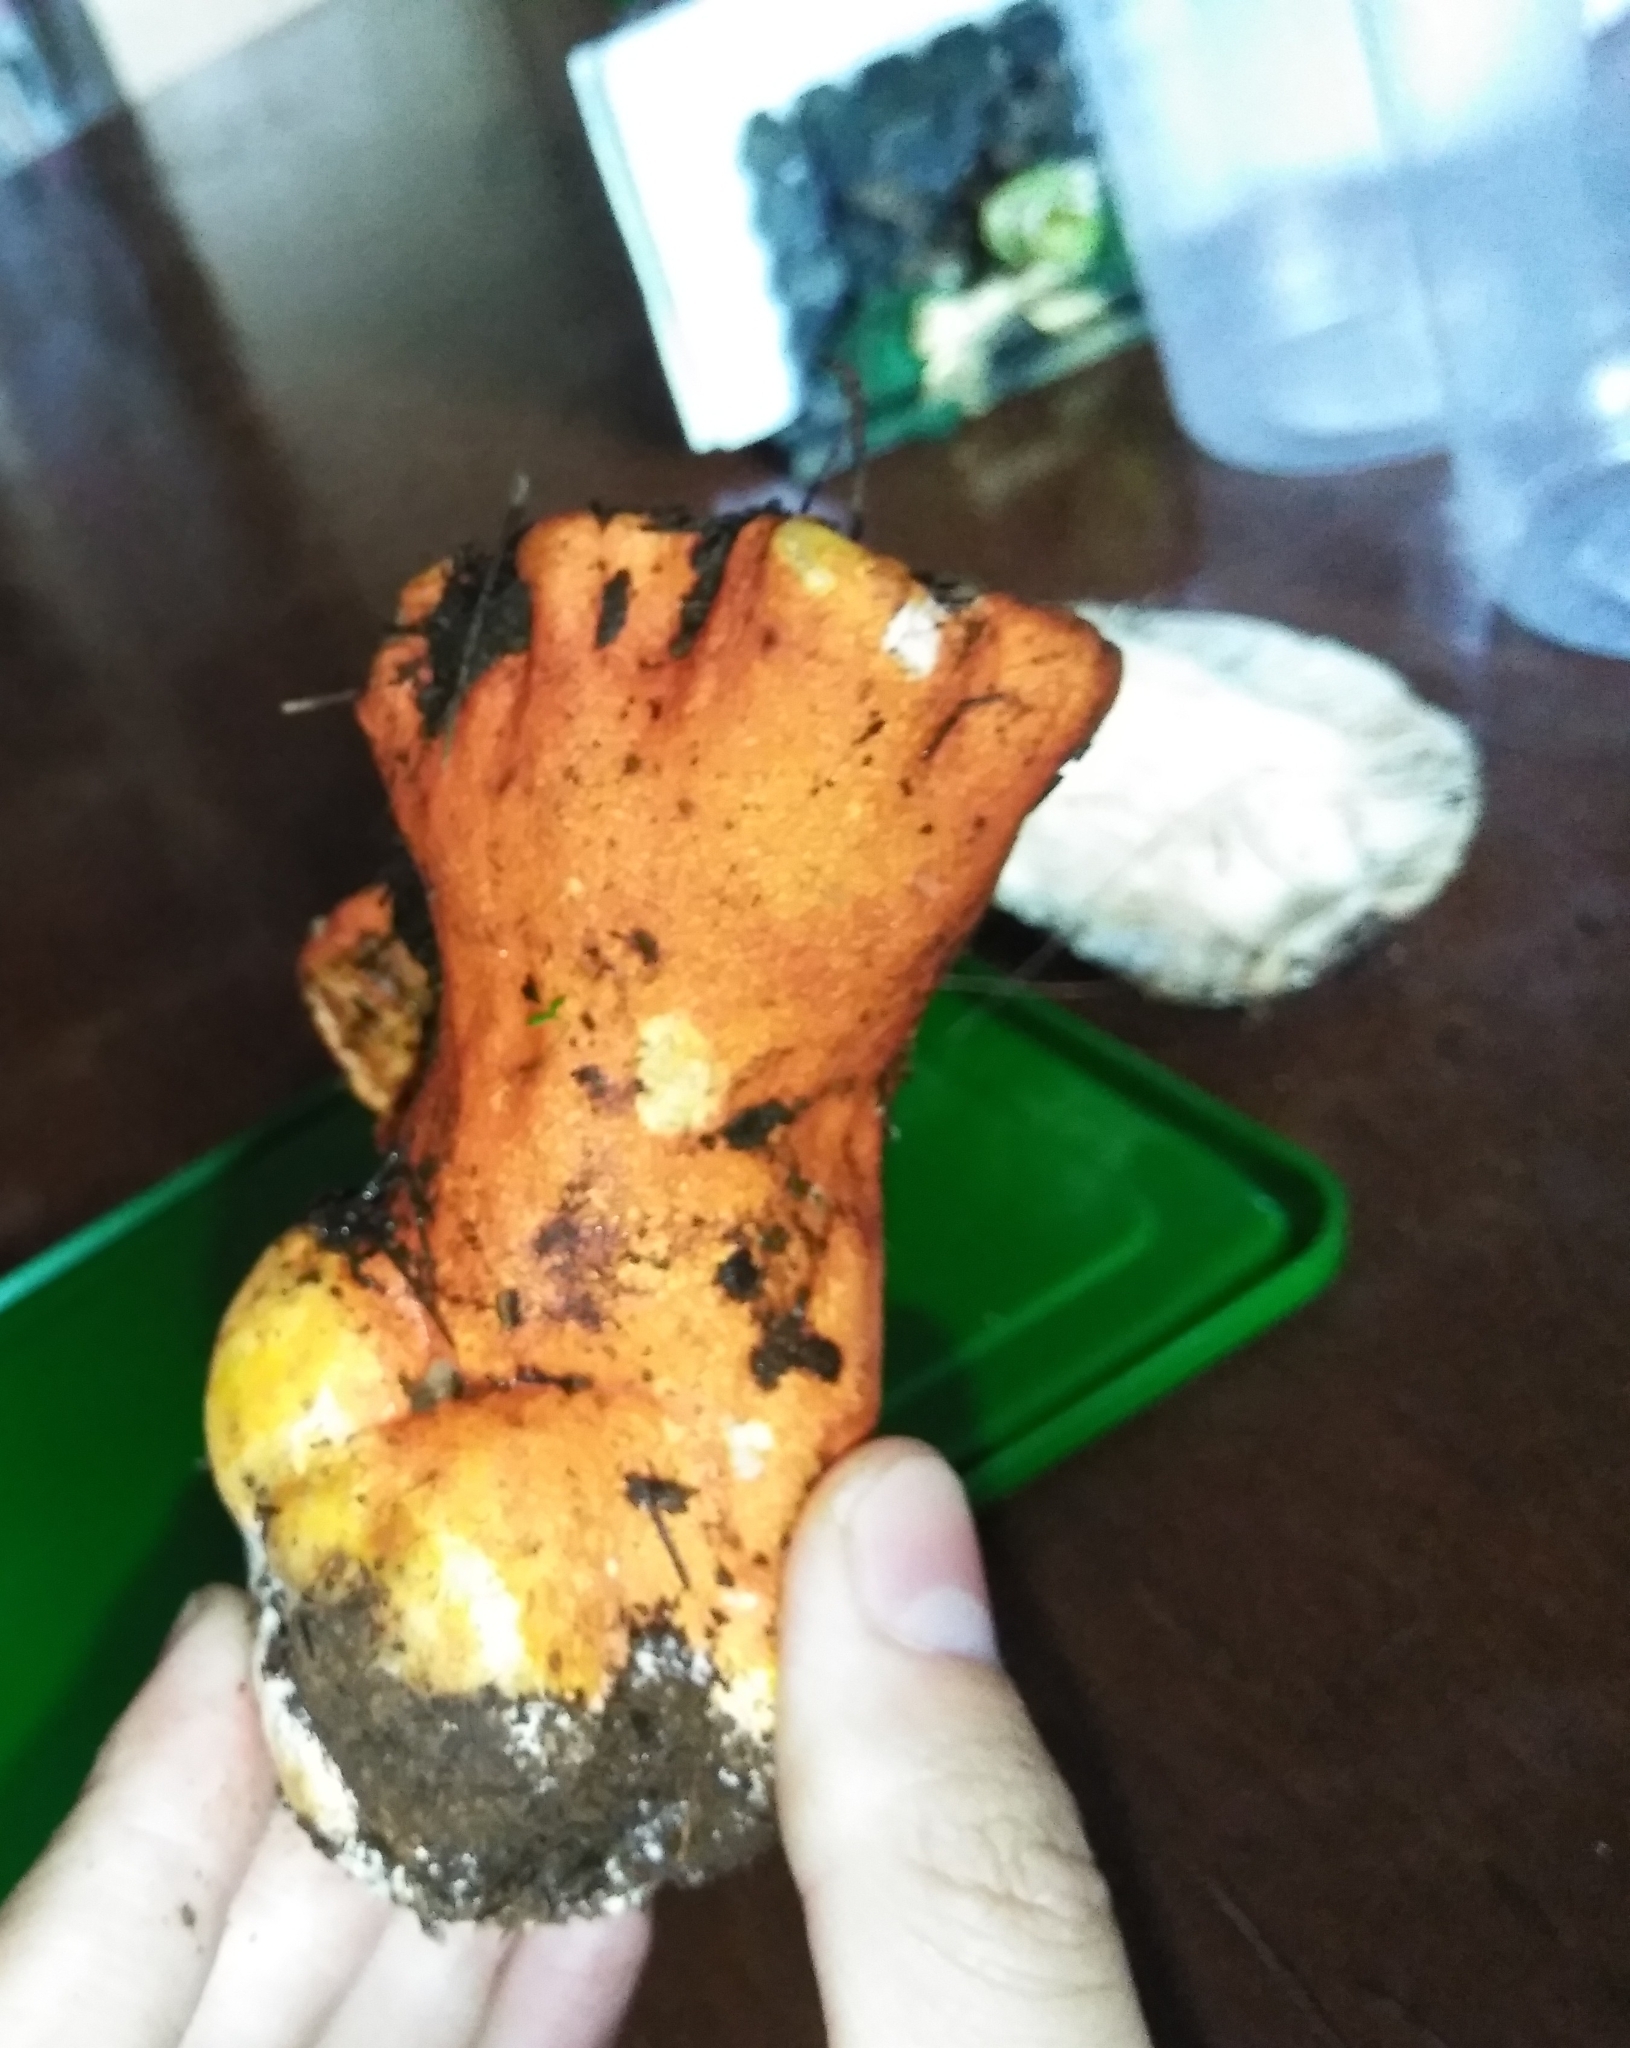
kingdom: Fungi
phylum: Ascomycota
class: Sordariomycetes
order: Hypocreales
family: Hypocreaceae
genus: Hypomyces
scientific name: Hypomyces lactifluorum
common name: Lobster mushroom
